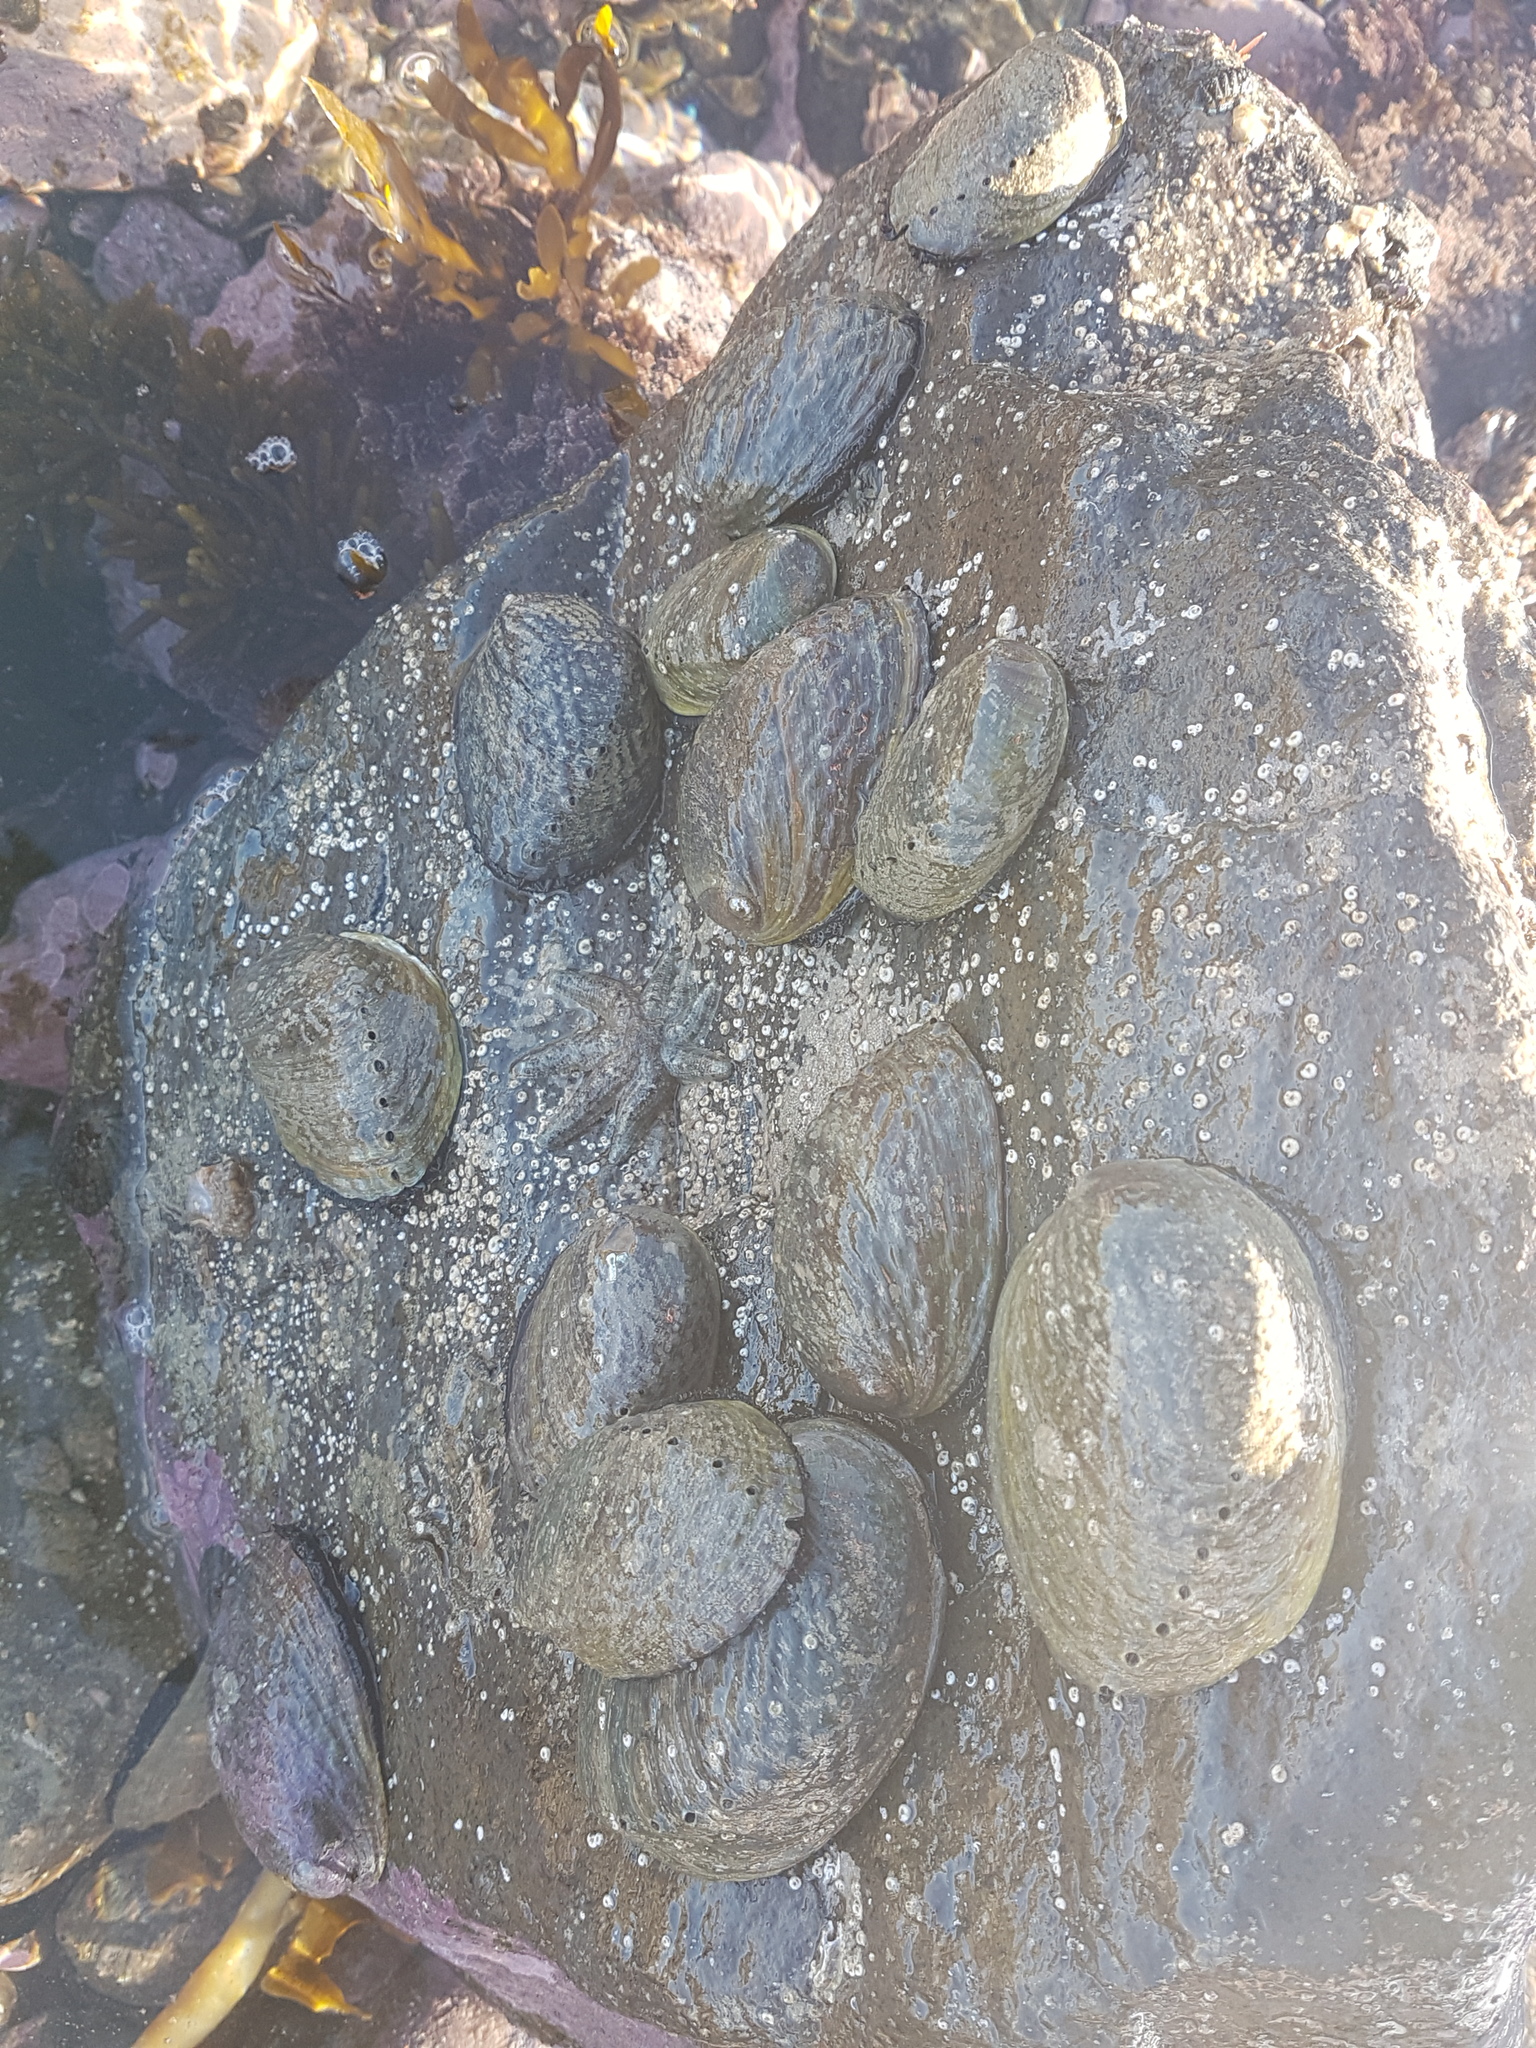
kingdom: Animalia
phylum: Mollusca
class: Gastropoda
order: Lepetellida
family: Haliotidae
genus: Haliotis
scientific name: Haliotis iris
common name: Abalone
